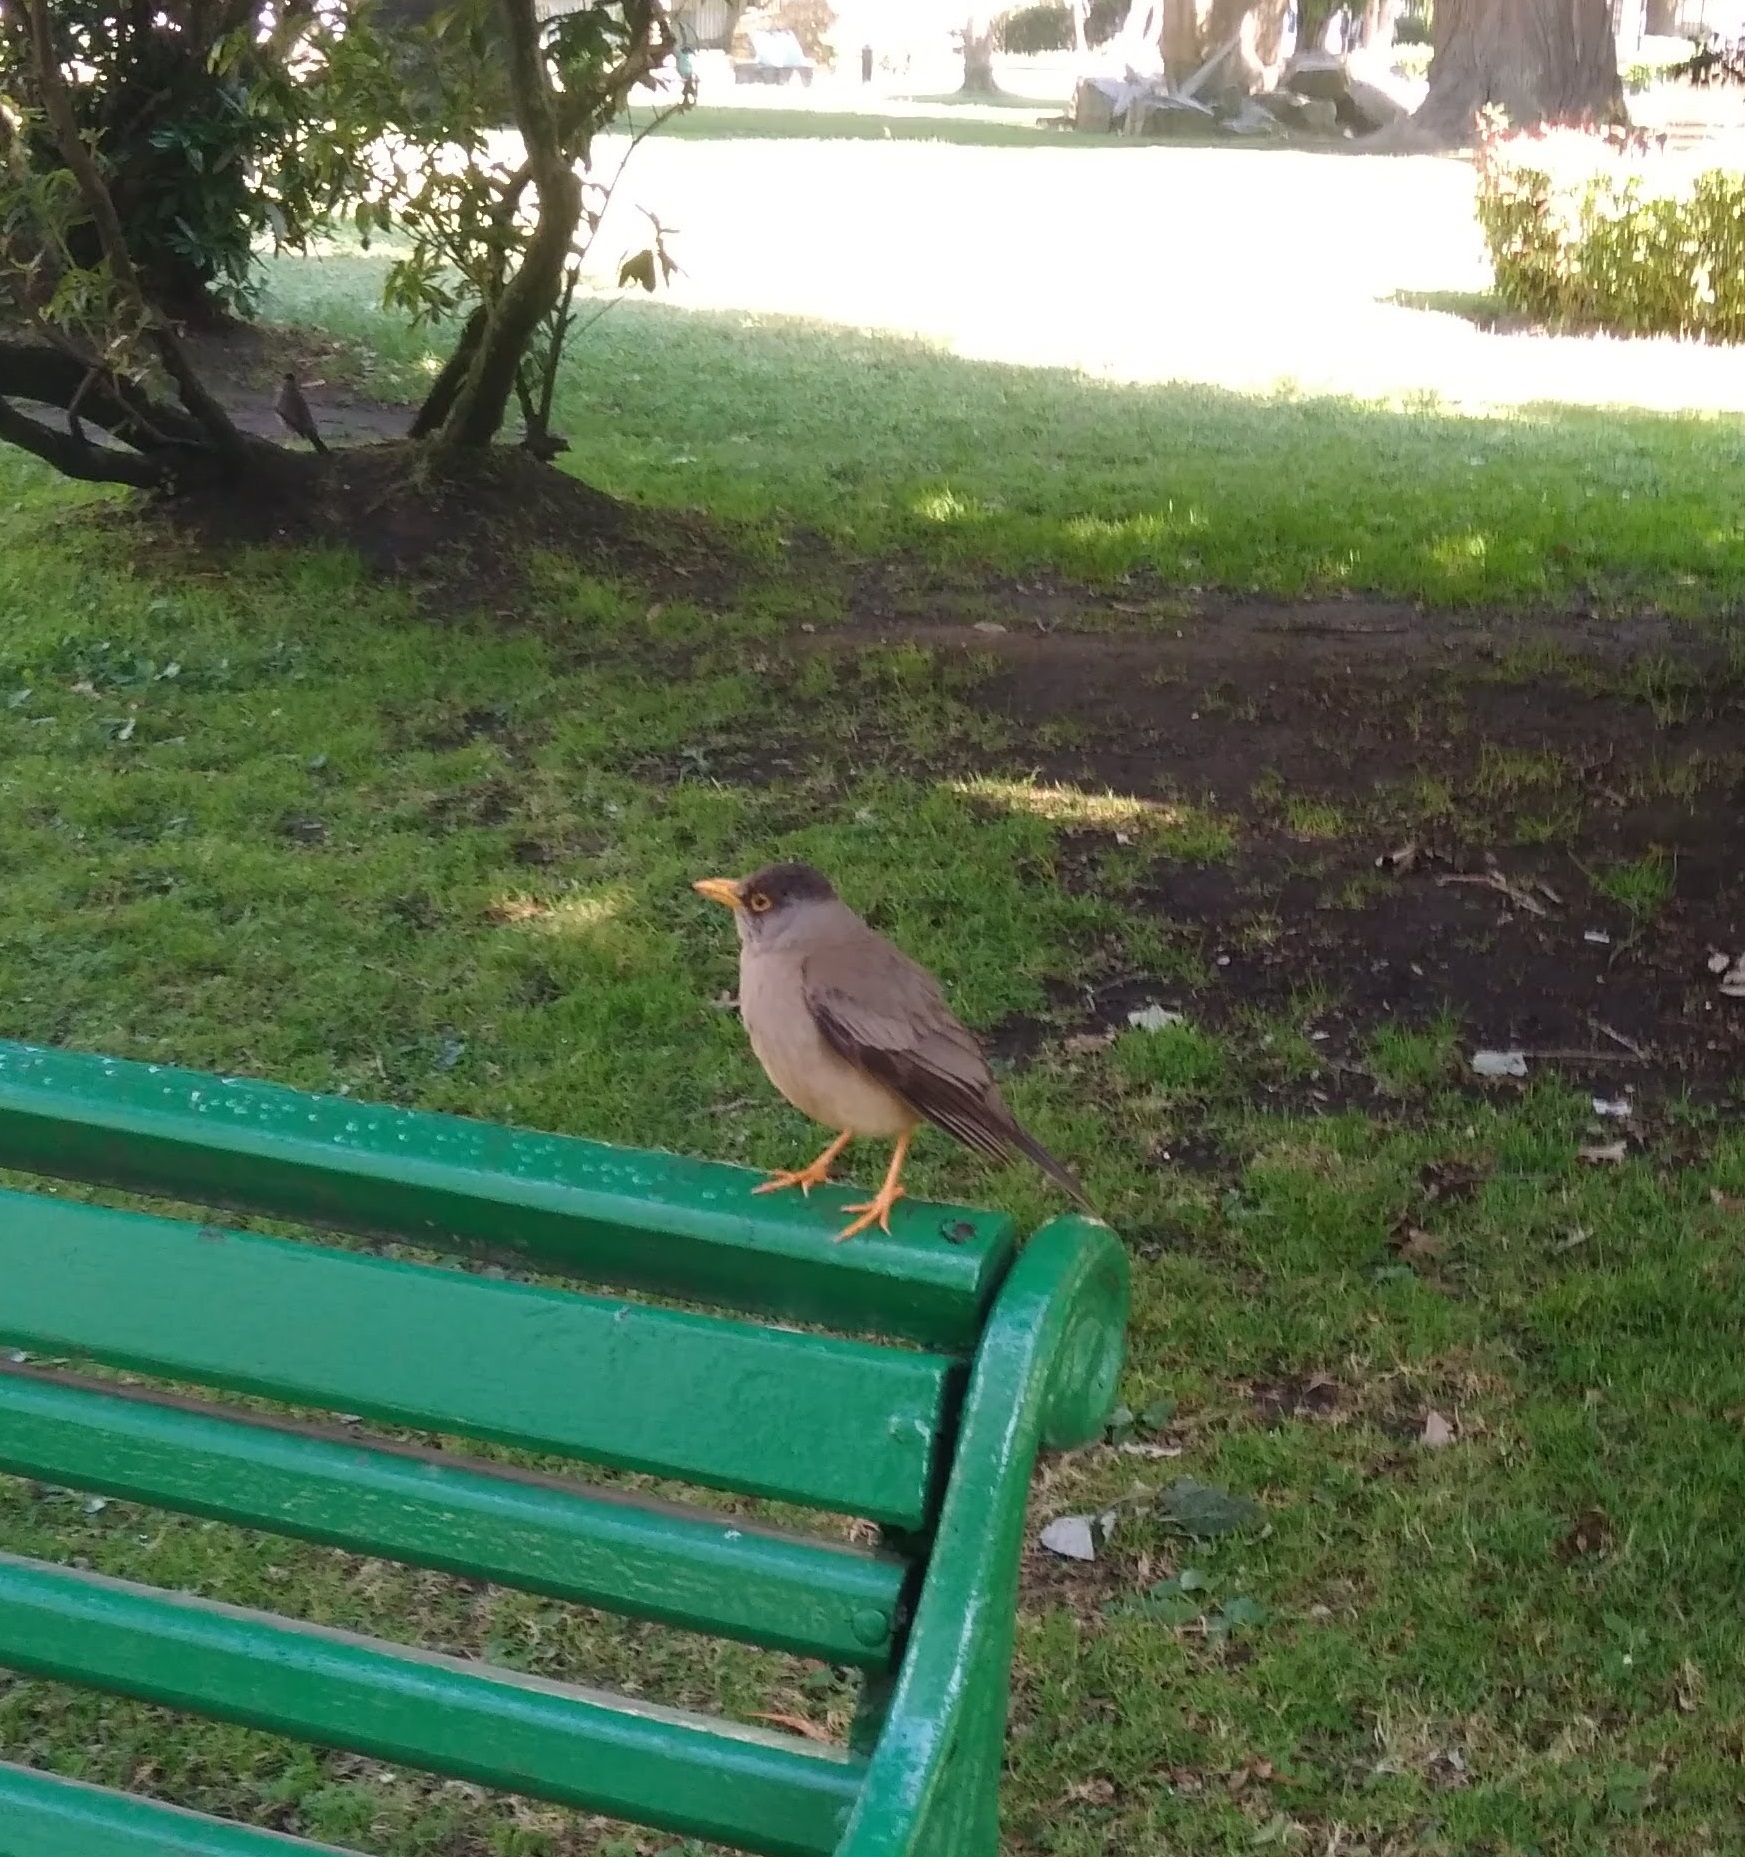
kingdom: Animalia
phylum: Chordata
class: Aves
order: Passeriformes
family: Turdidae
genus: Turdus
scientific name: Turdus falcklandii
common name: Austral thrush
